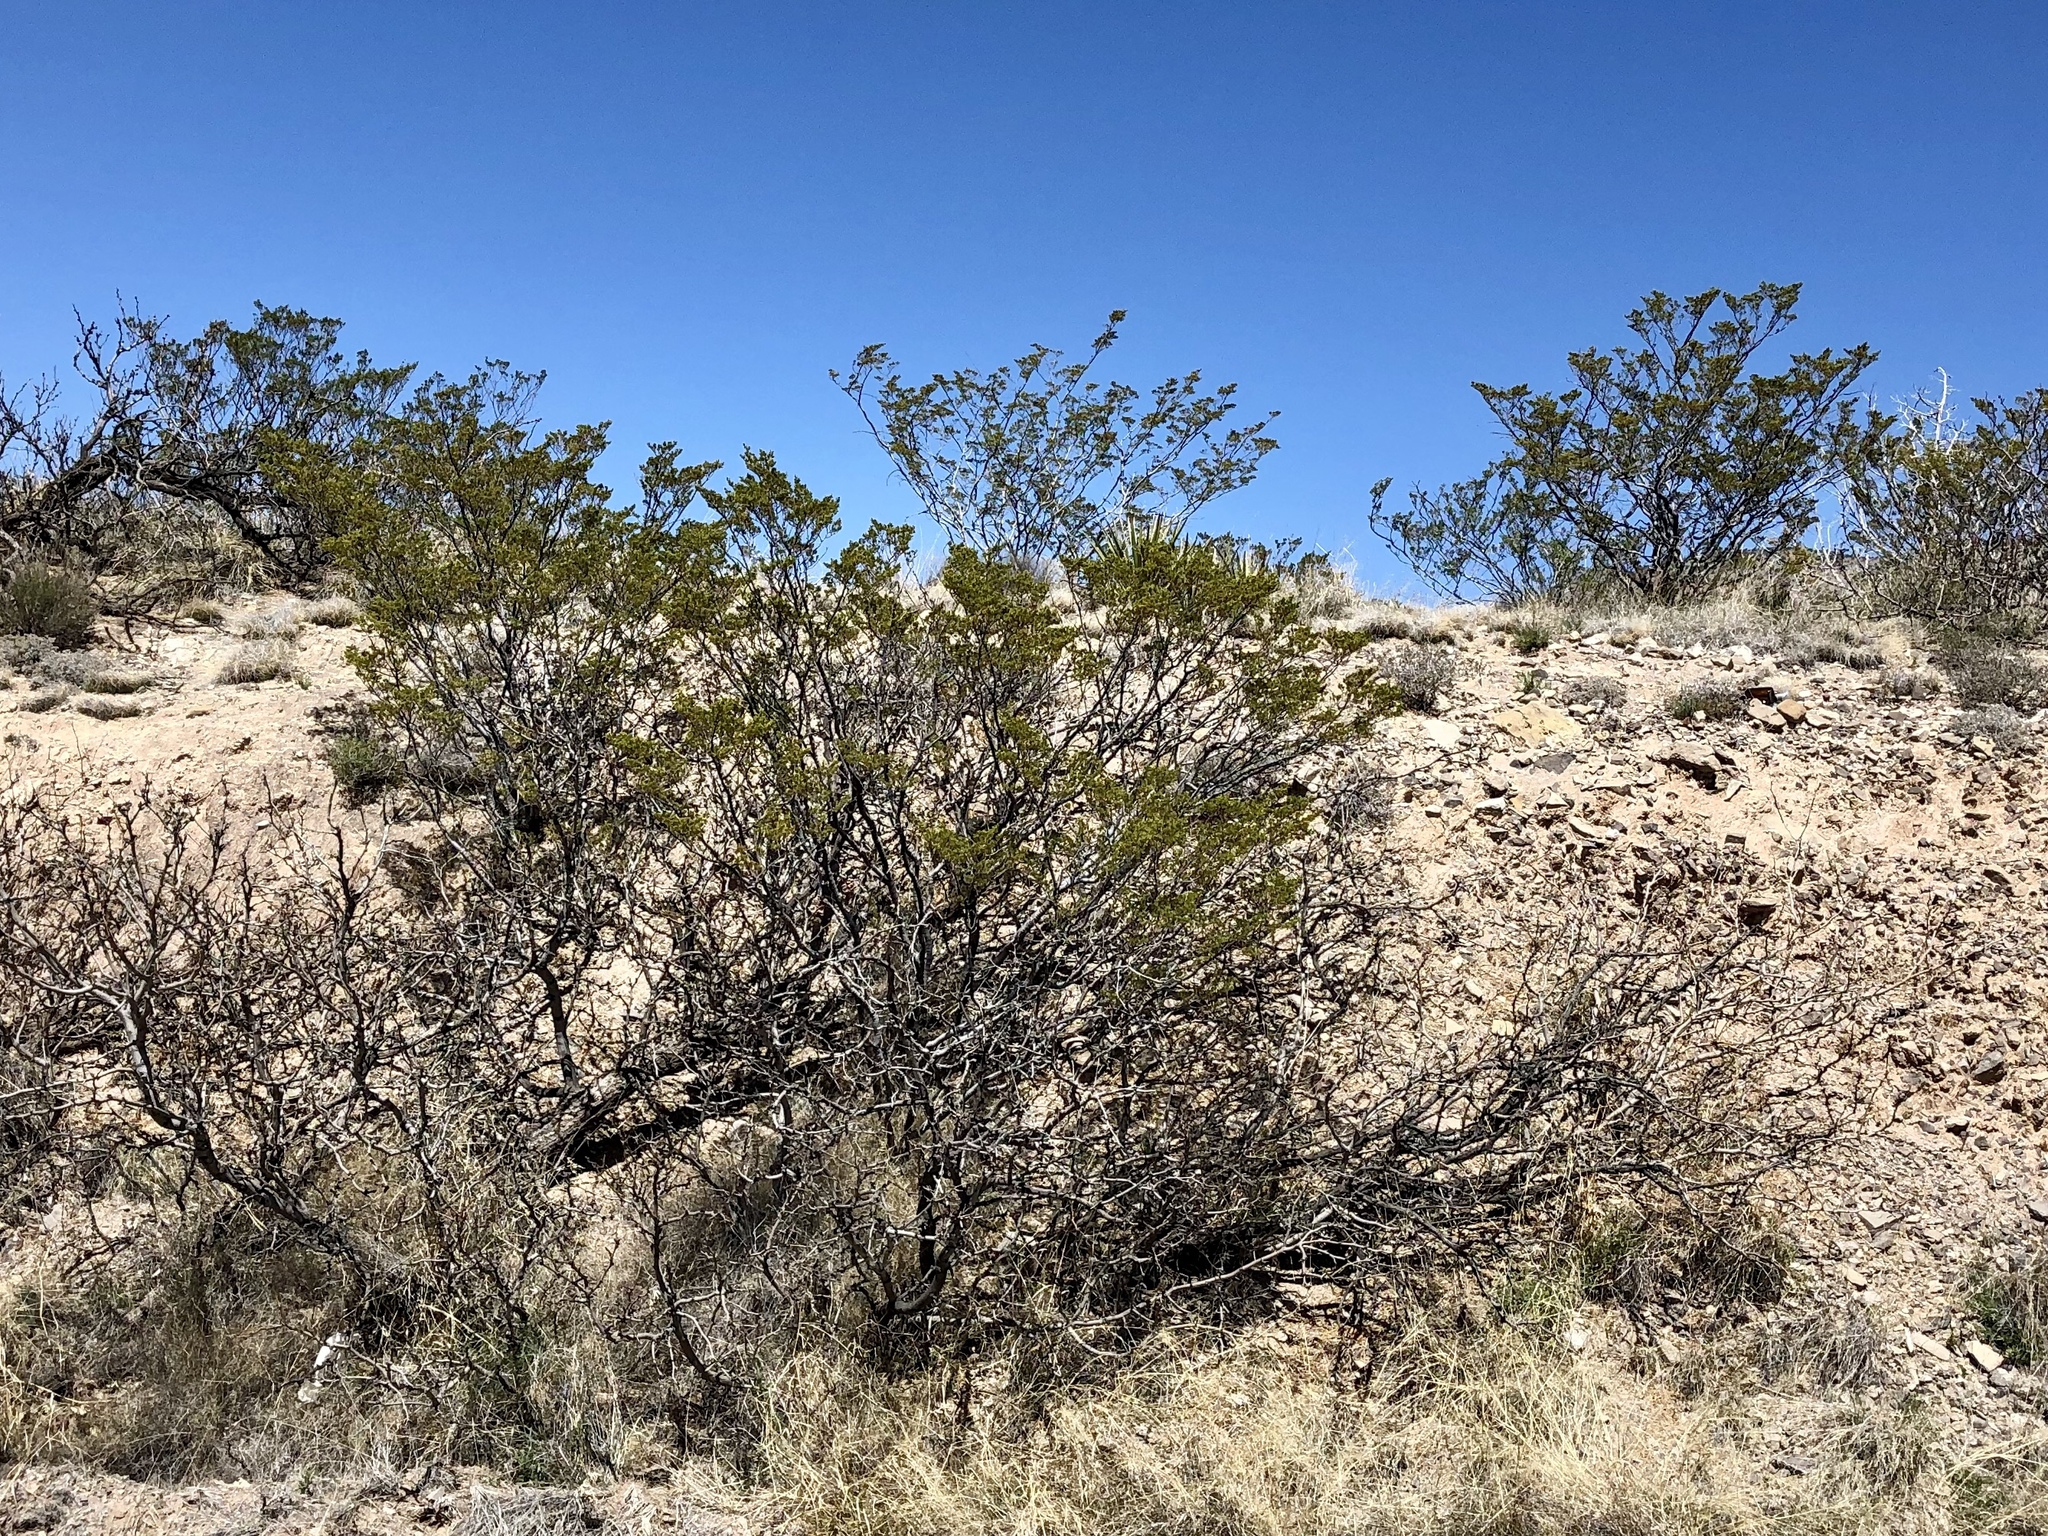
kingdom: Plantae
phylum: Tracheophyta
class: Magnoliopsida
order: Zygophyllales
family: Zygophyllaceae
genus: Larrea
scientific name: Larrea tridentata
